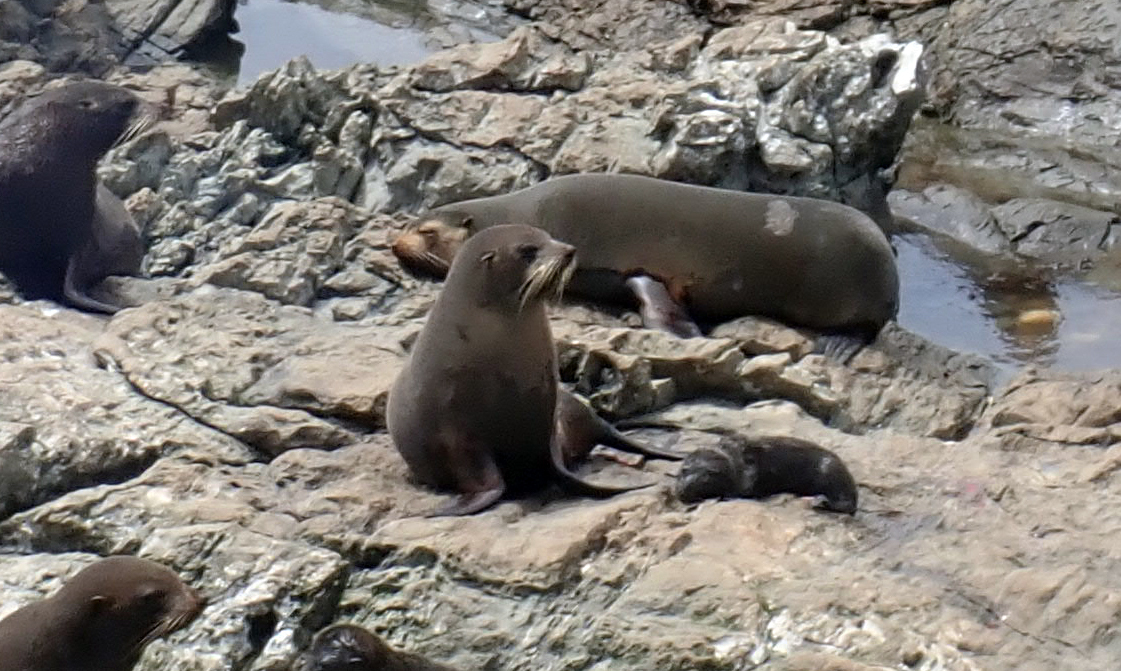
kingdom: Animalia
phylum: Chordata
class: Mammalia
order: Carnivora
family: Otariidae
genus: Arctocephalus
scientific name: Arctocephalus tropicalis
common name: Subantarctic fur seal
